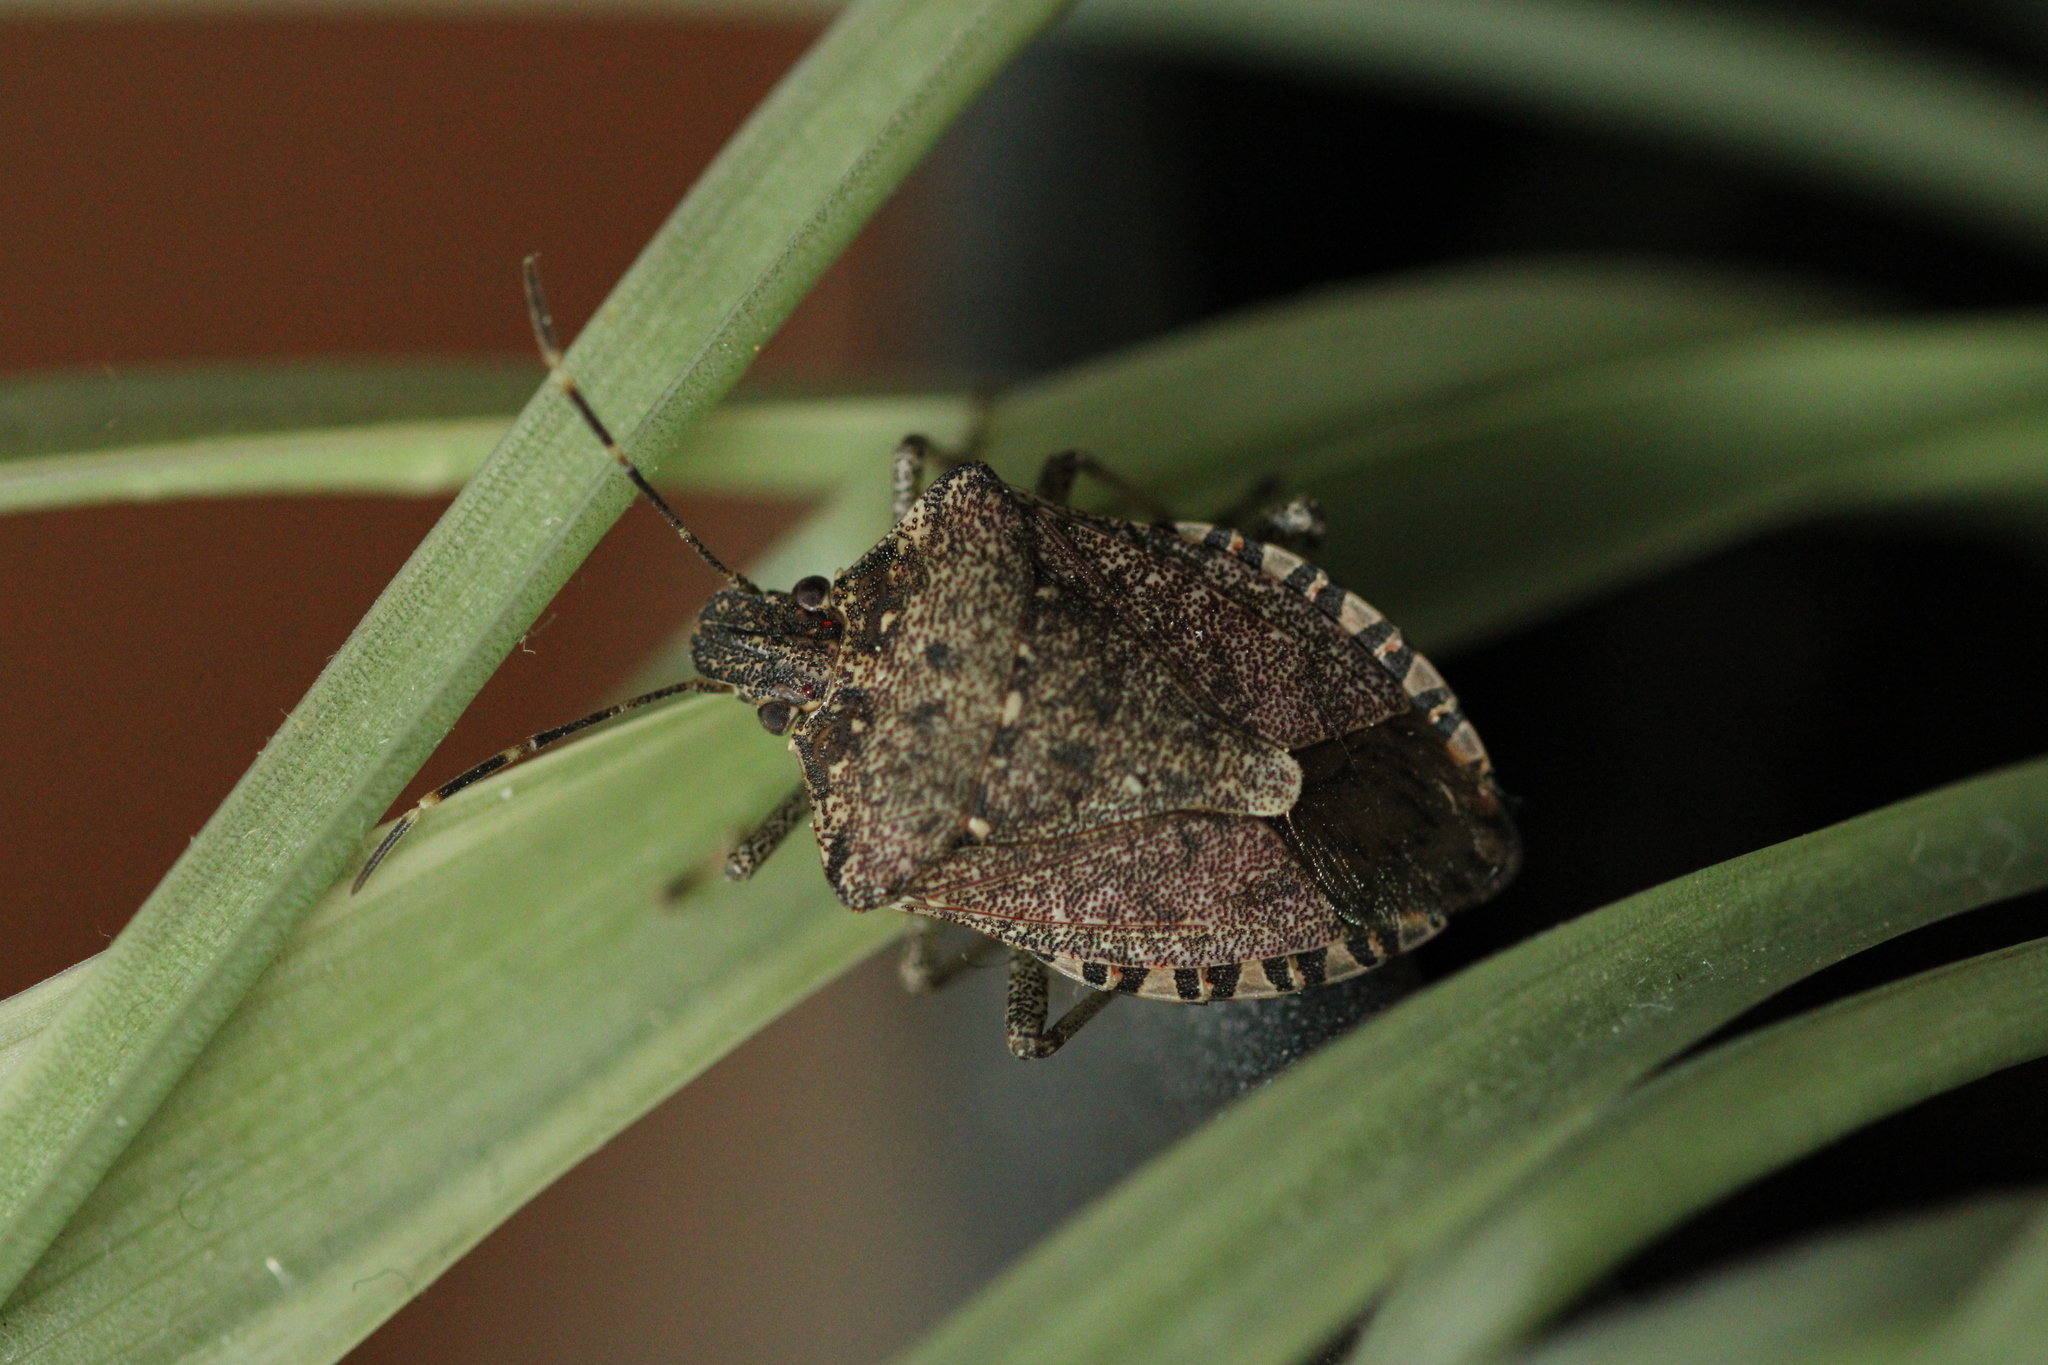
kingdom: Animalia
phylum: Arthropoda
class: Insecta
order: Hemiptera
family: Pentatomidae
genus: Halyomorpha
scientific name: Halyomorpha halys
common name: Brown marmorated stink bug
